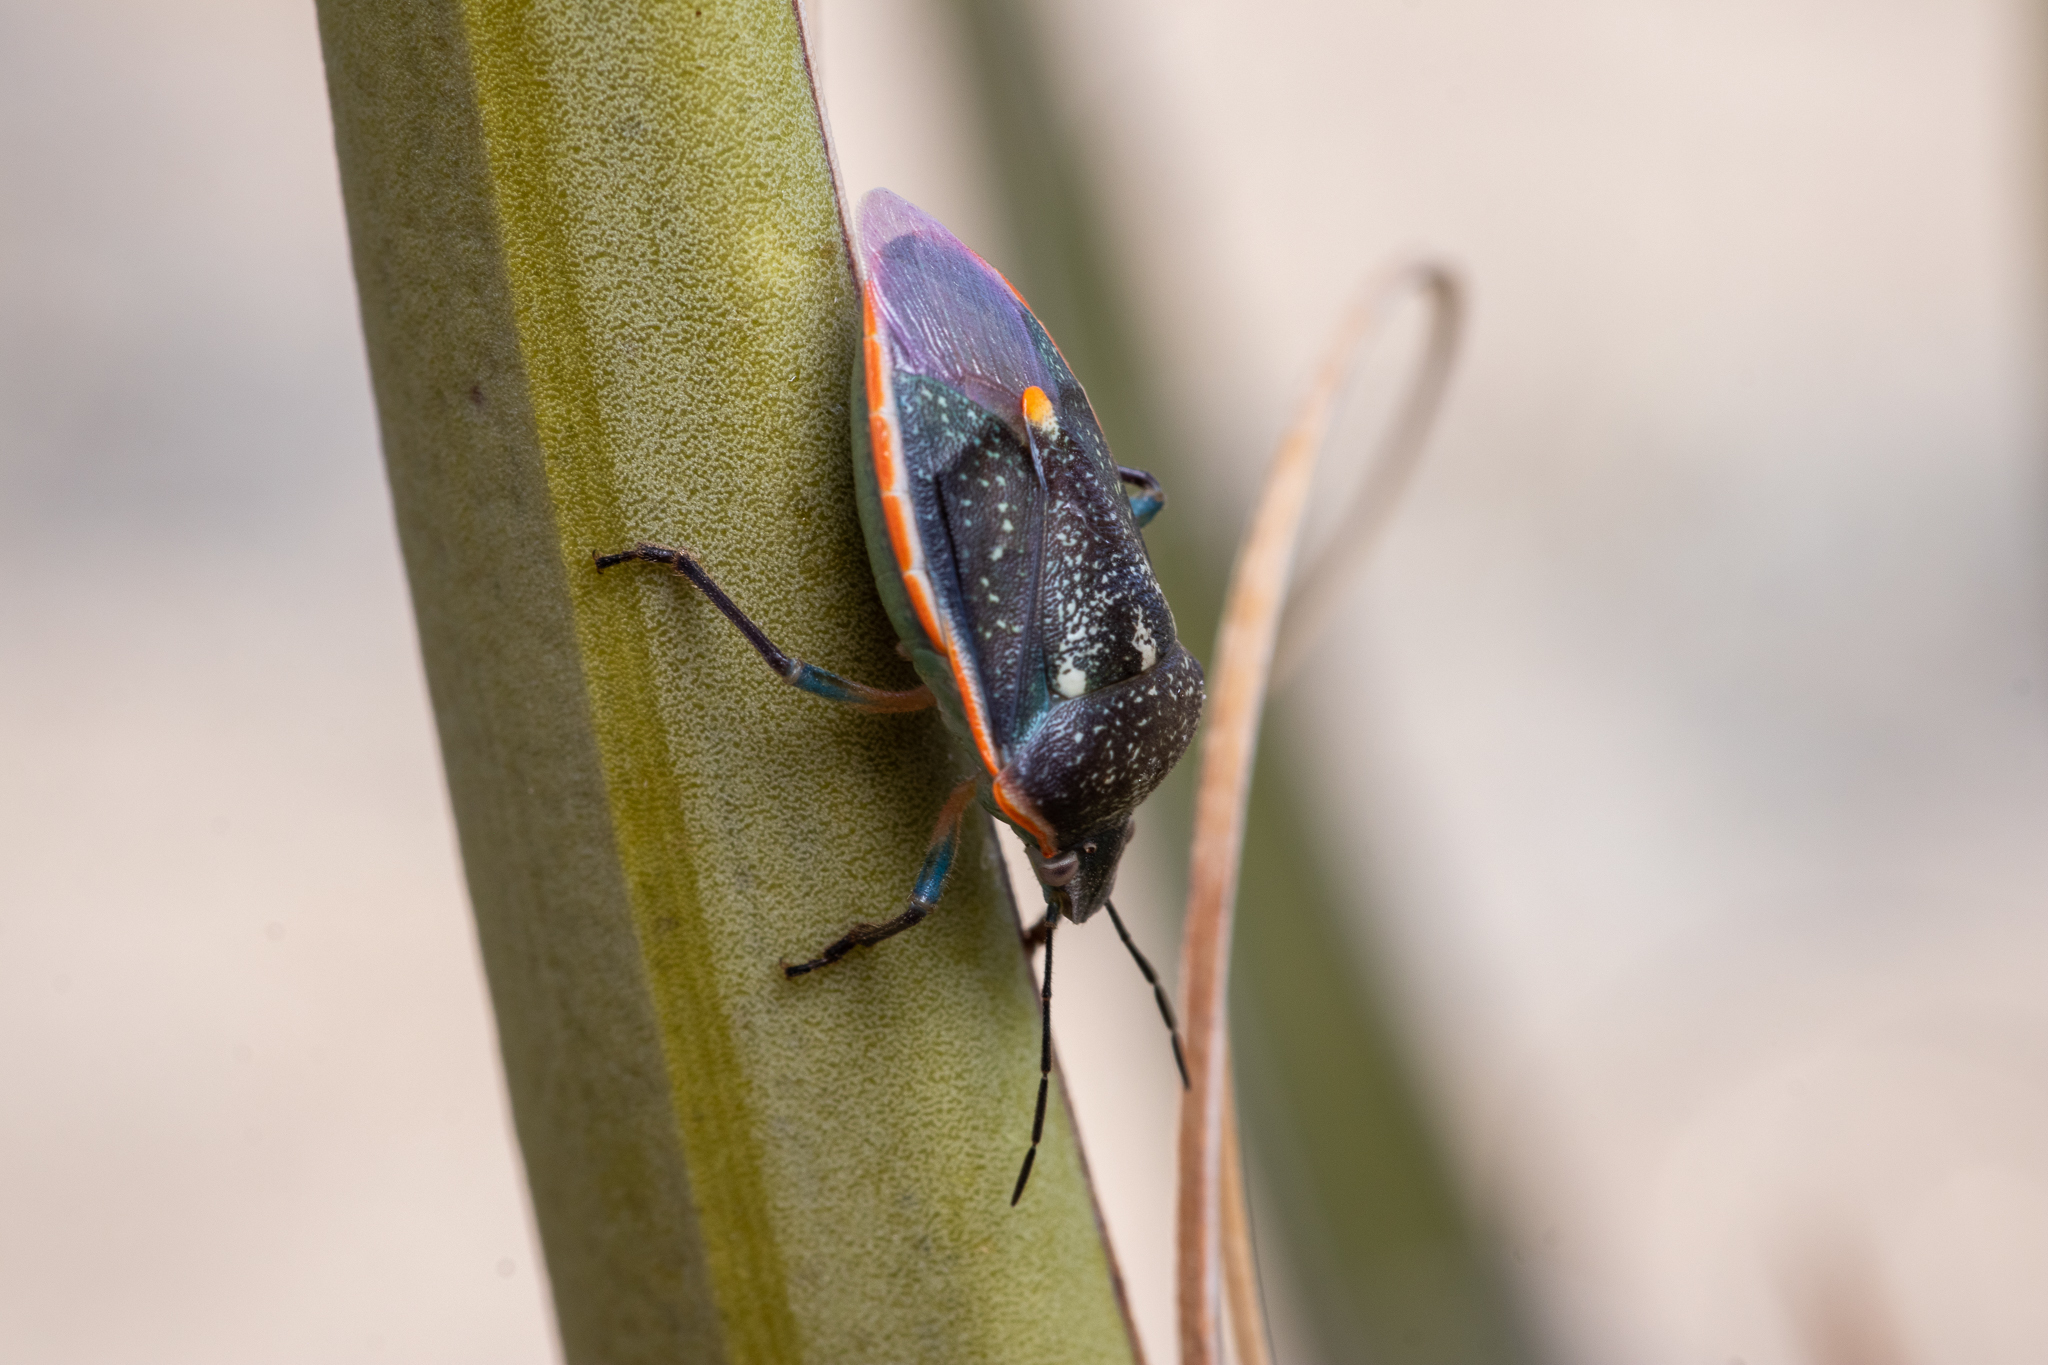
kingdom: Animalia
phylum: Arthropoda
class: Insecta
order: Hemiptera
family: Pentatomidae
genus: Chlorochroa
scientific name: Chlorochroa sayi
